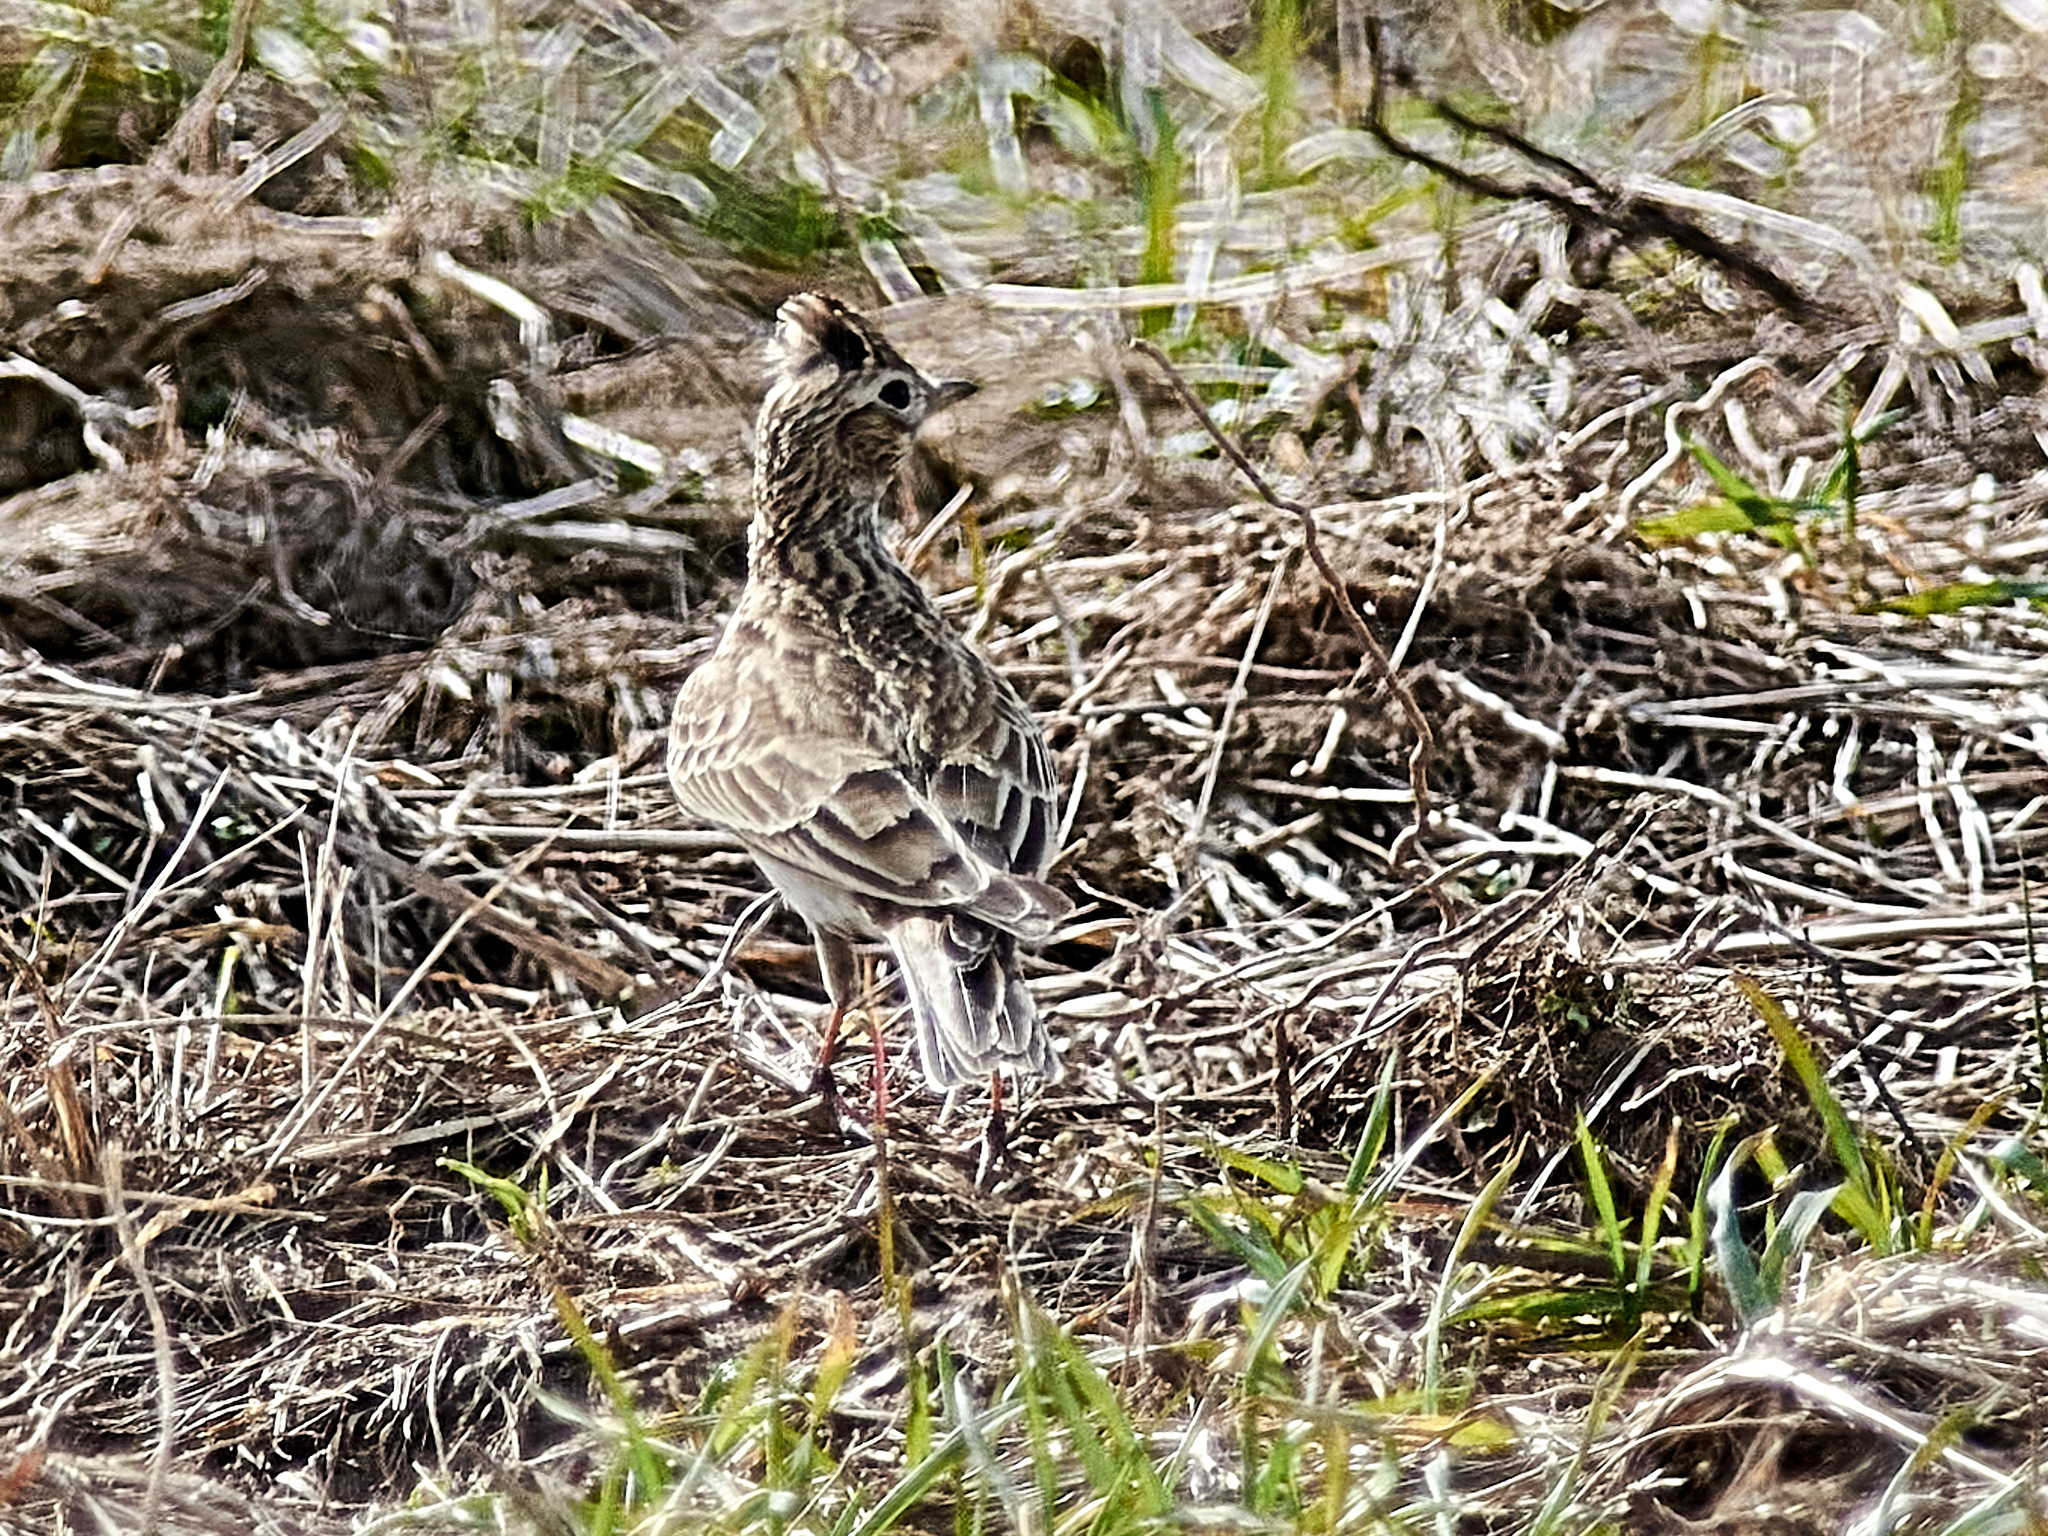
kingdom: Animalia
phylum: Chordata
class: Aves
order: Passeriformes
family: Alaudidae
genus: Alauda
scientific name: Alauda arvensis
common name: Eurasian skylark
